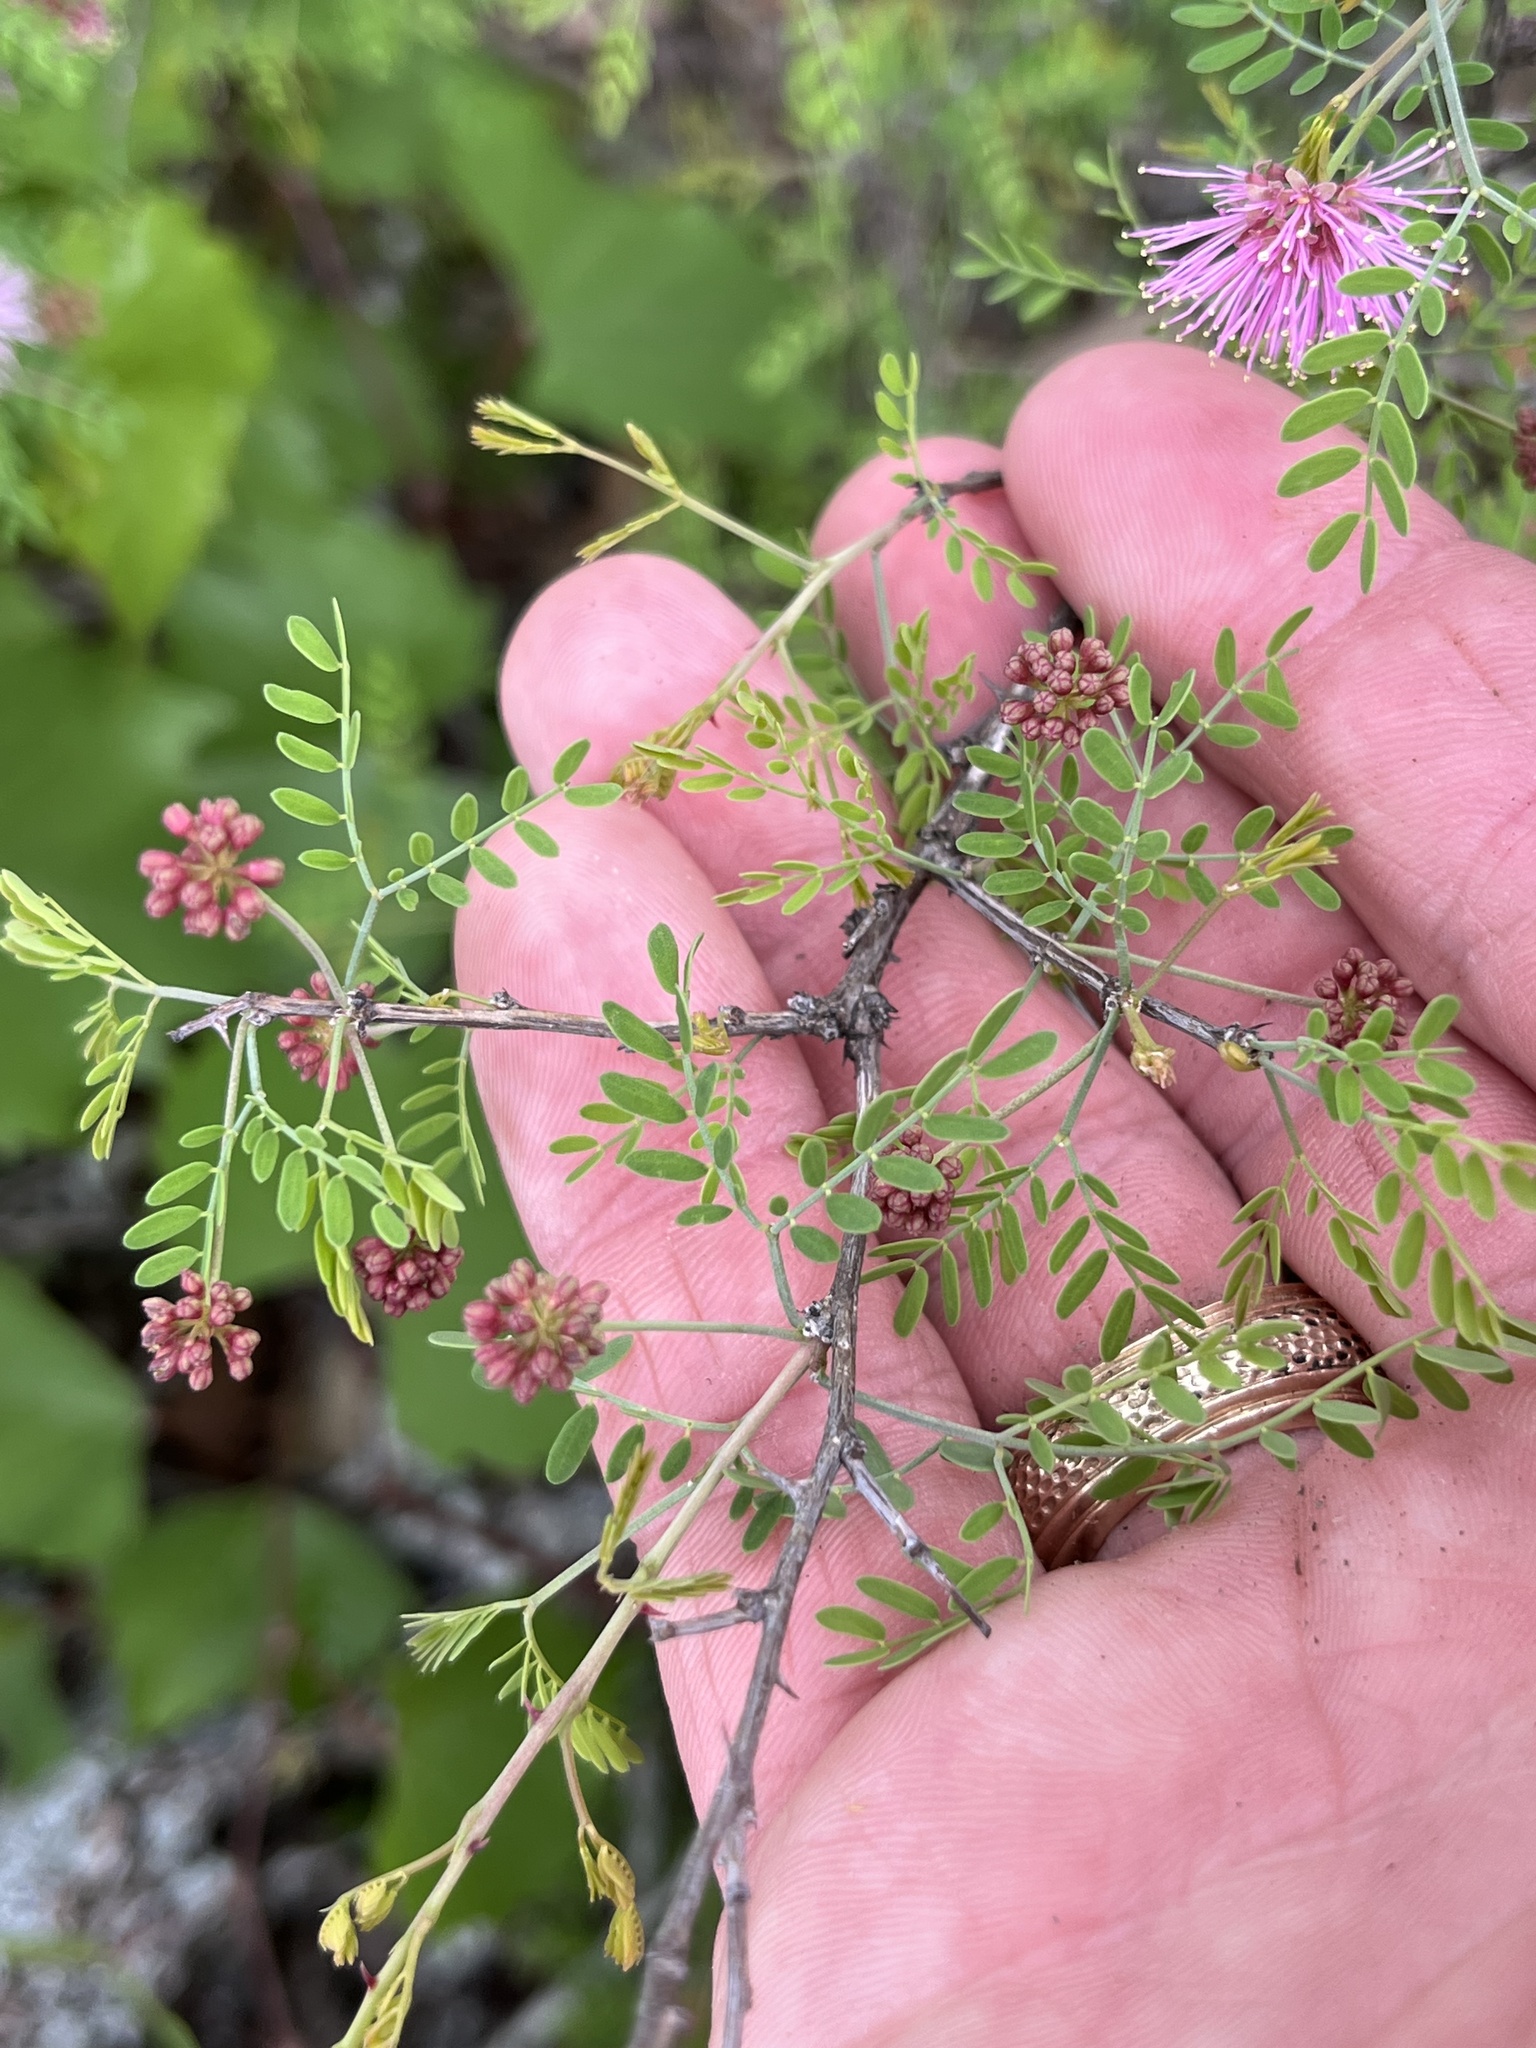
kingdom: Plantae
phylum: Tracheophyta
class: Magnoliopsida
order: Fabales
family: Fabaceae
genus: Mimosa
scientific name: Mimosa borealis
